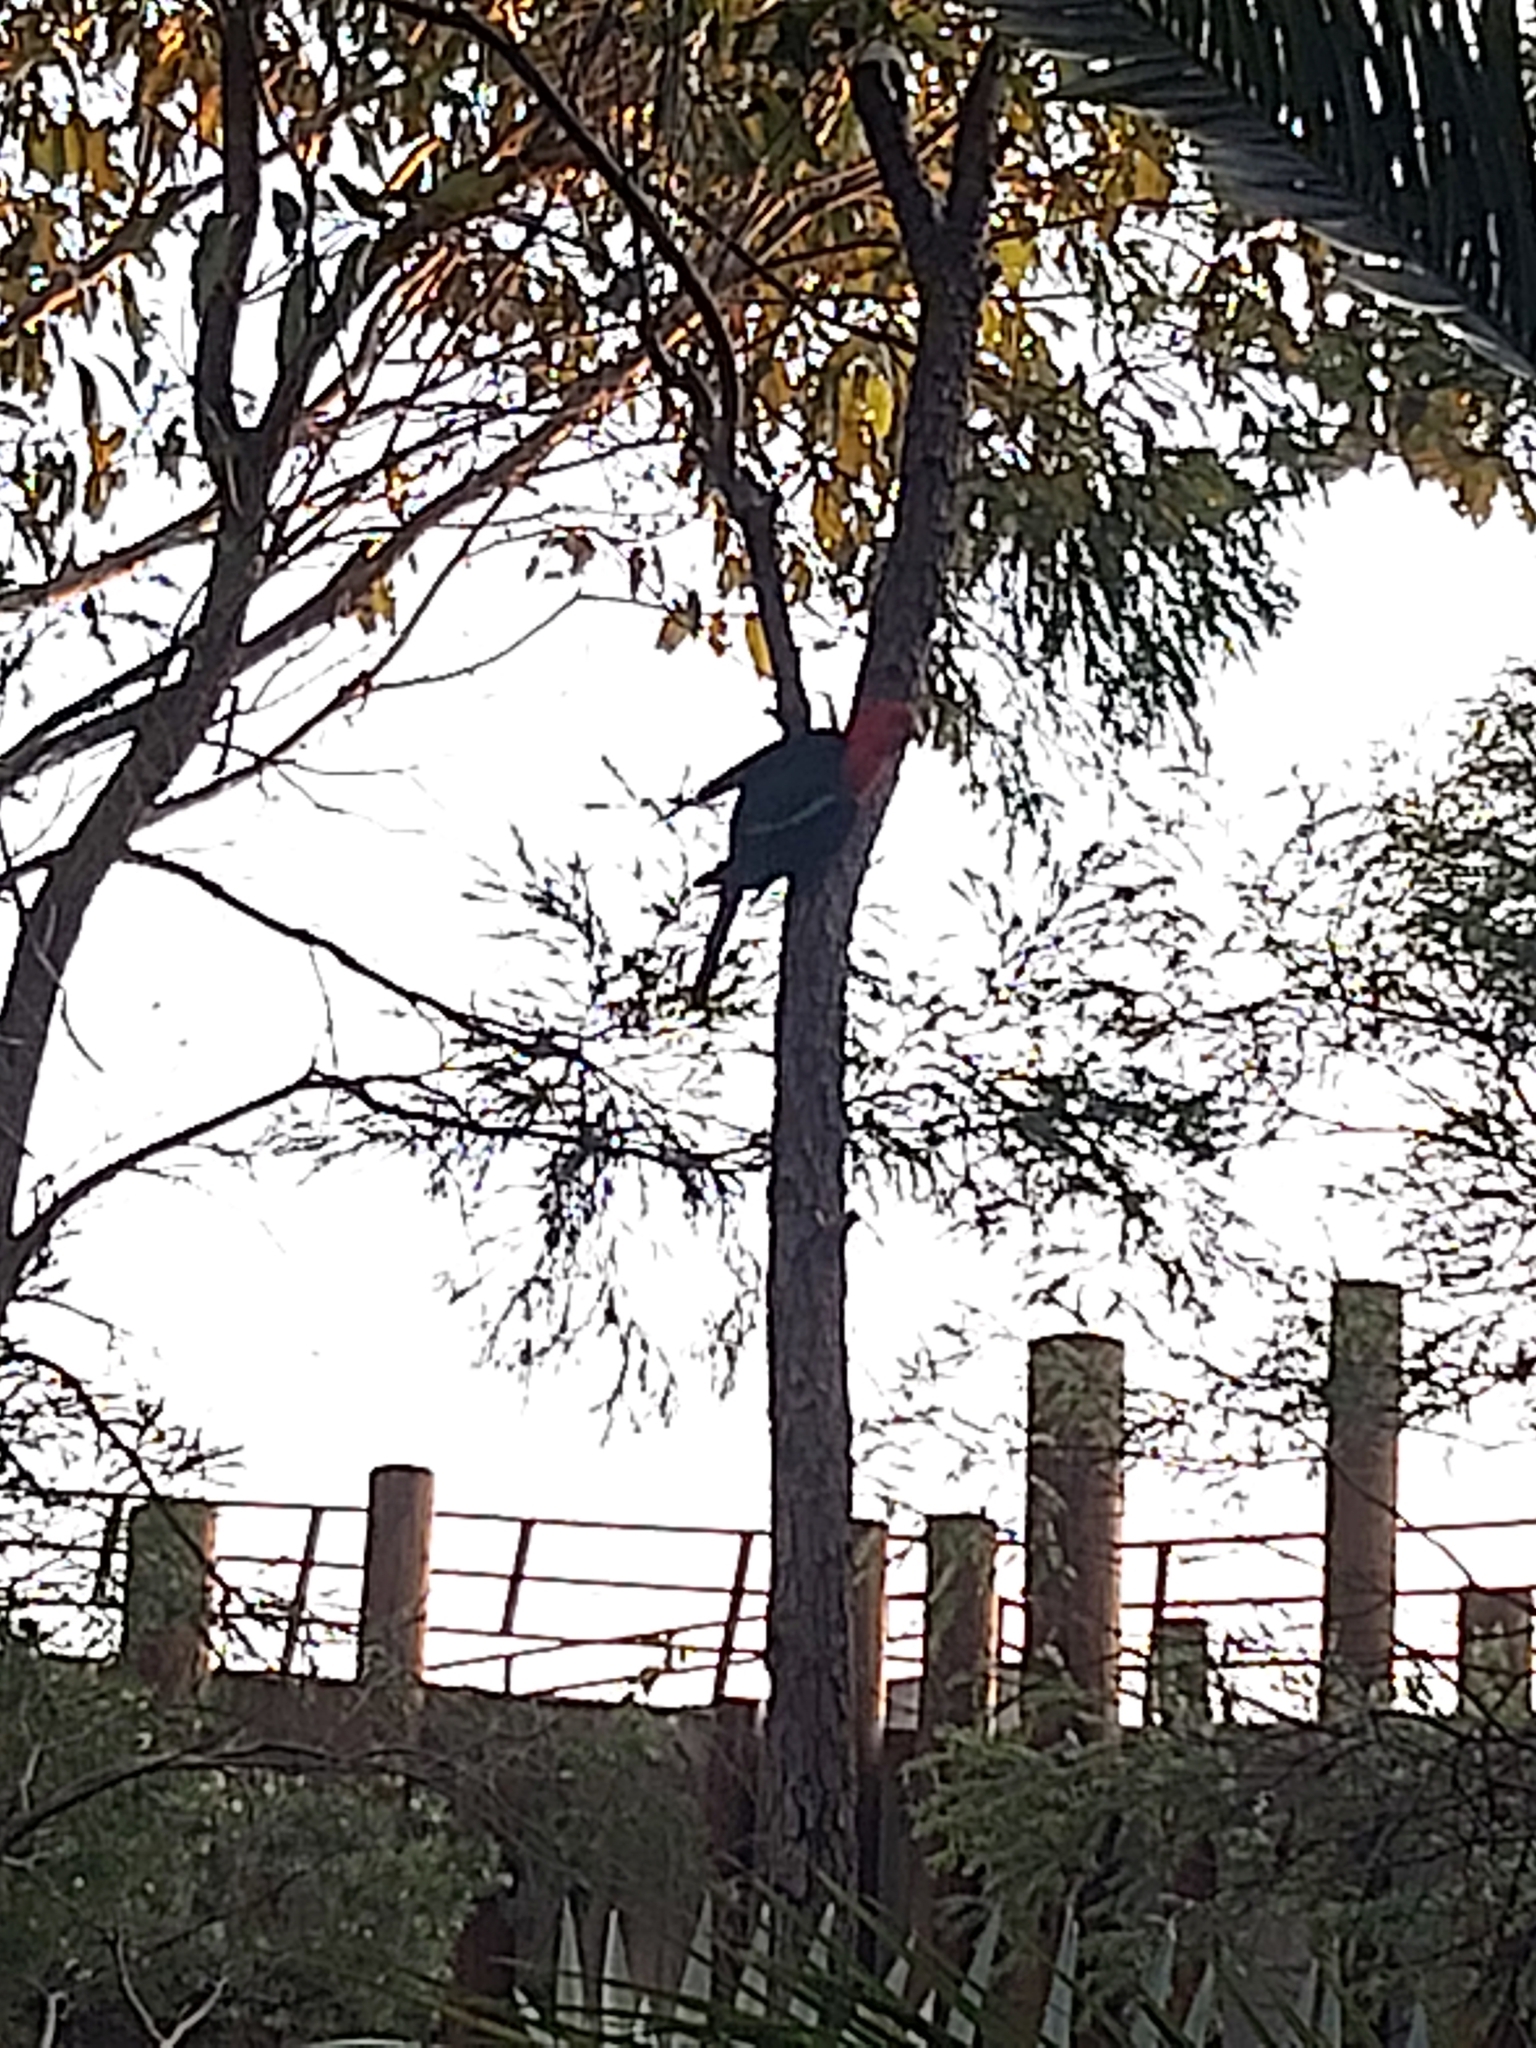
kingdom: Animalia
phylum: Chordata
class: Aves
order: Psittaciformes
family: Psittacidae
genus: Alisterus
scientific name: Alisterus scapularis
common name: Australian king parrot
